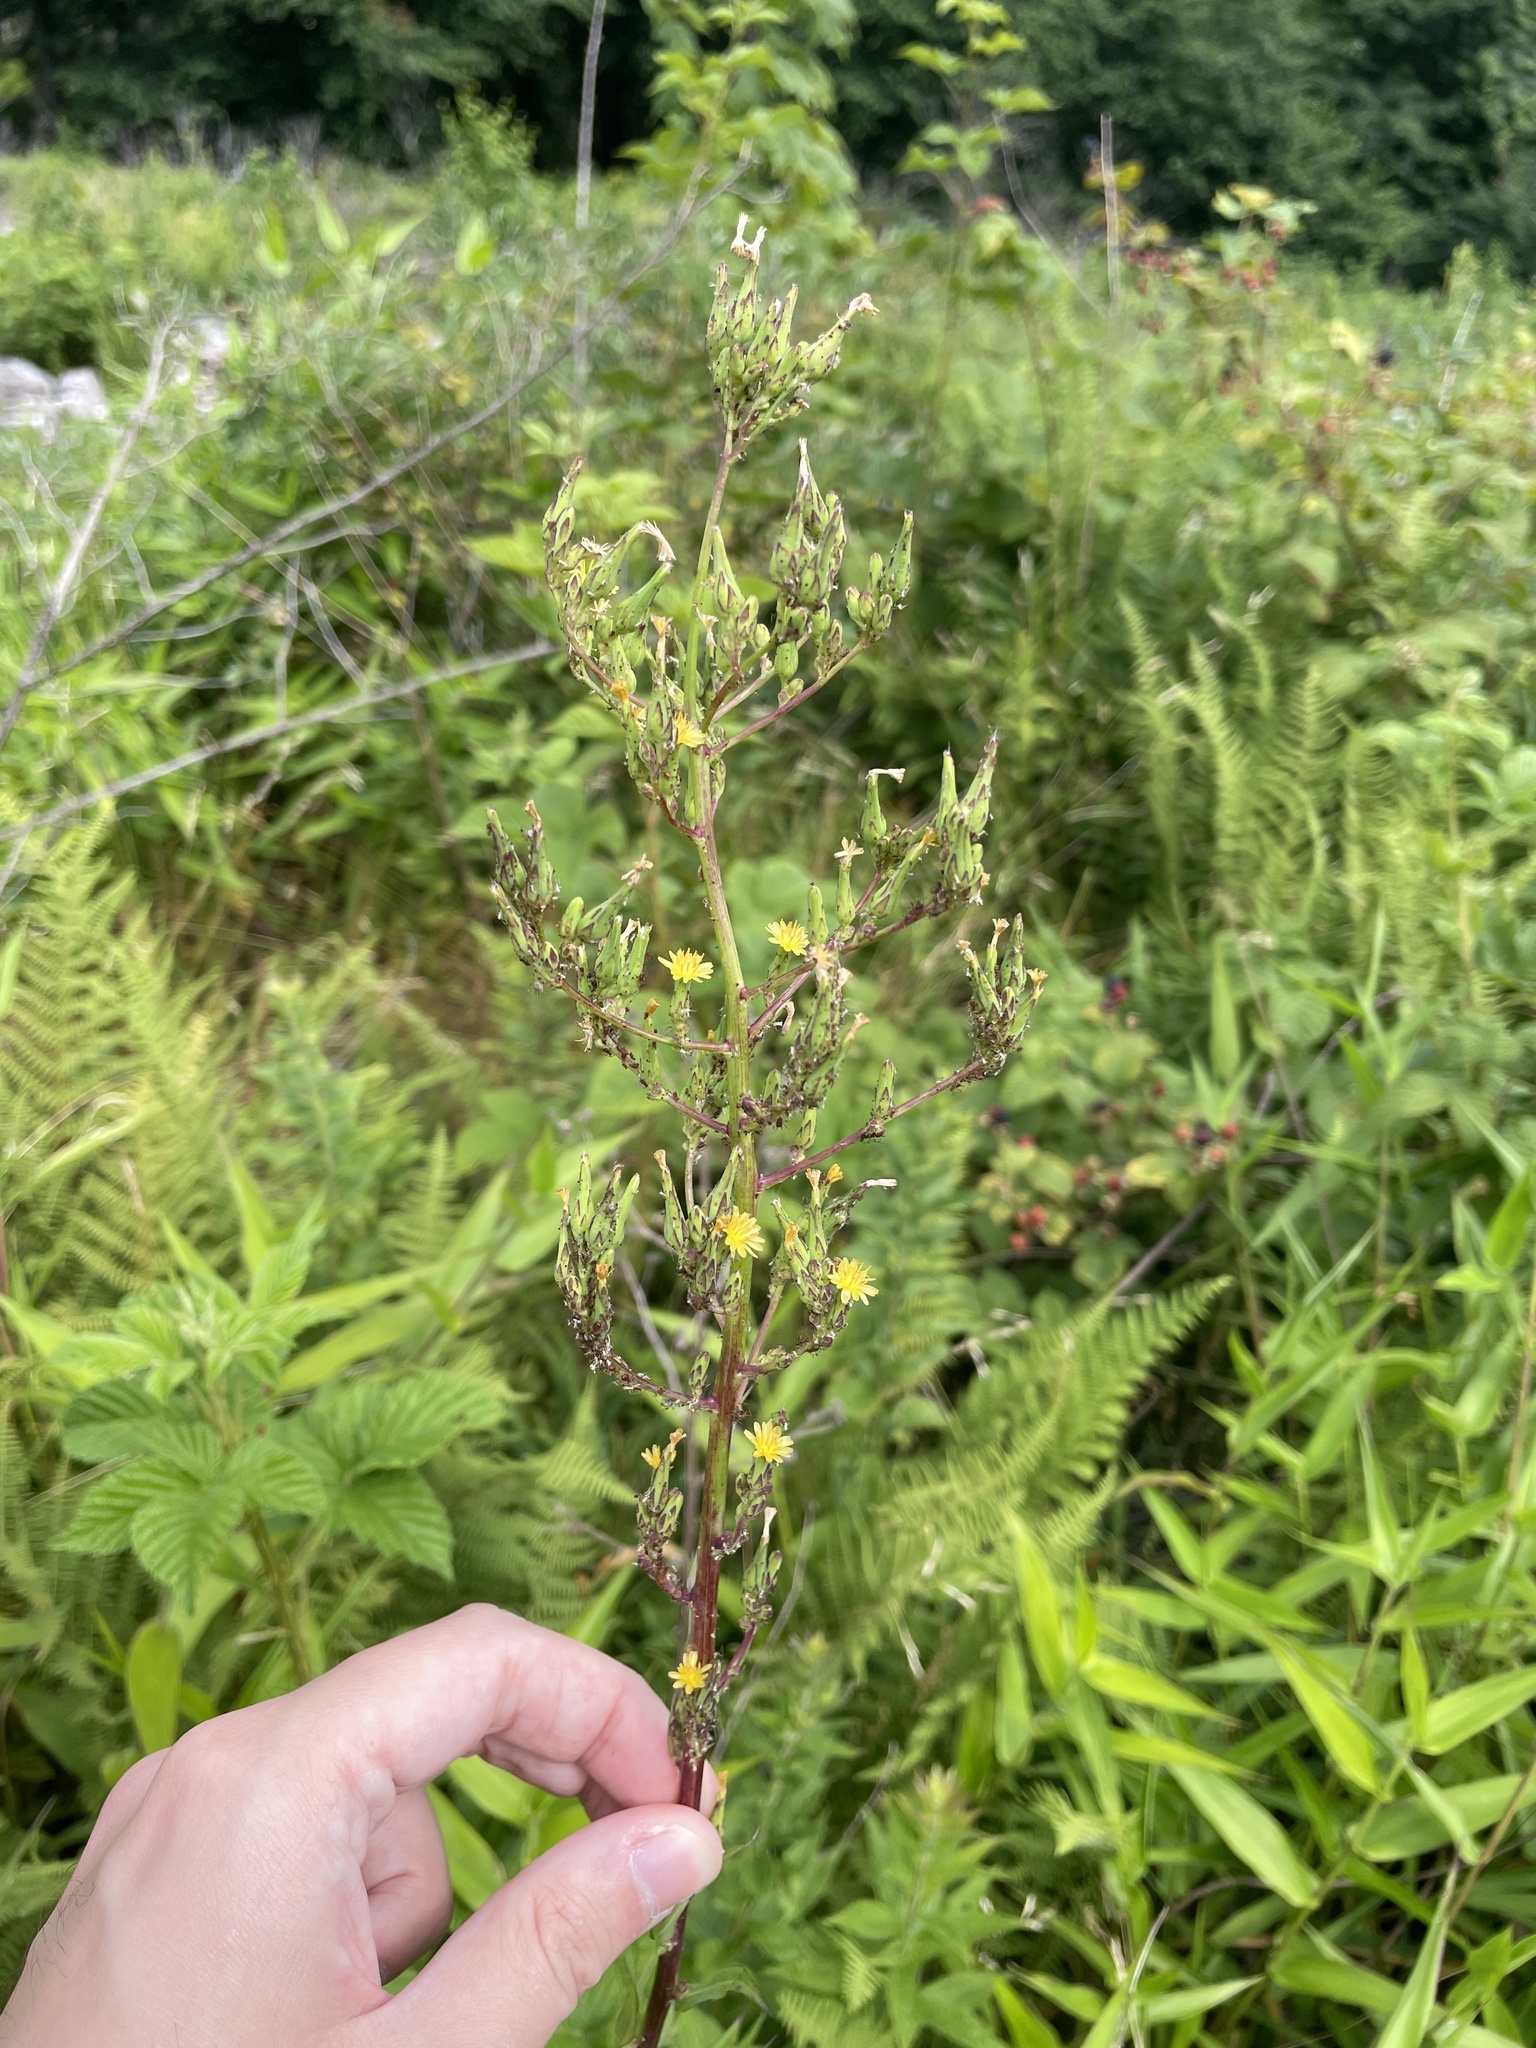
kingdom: Plantae
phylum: Tracheophyta
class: Magnoliopsida
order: Asterales
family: Asteraceae
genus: Lactuca
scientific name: Lactuca canadensis
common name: Canada lettuce
